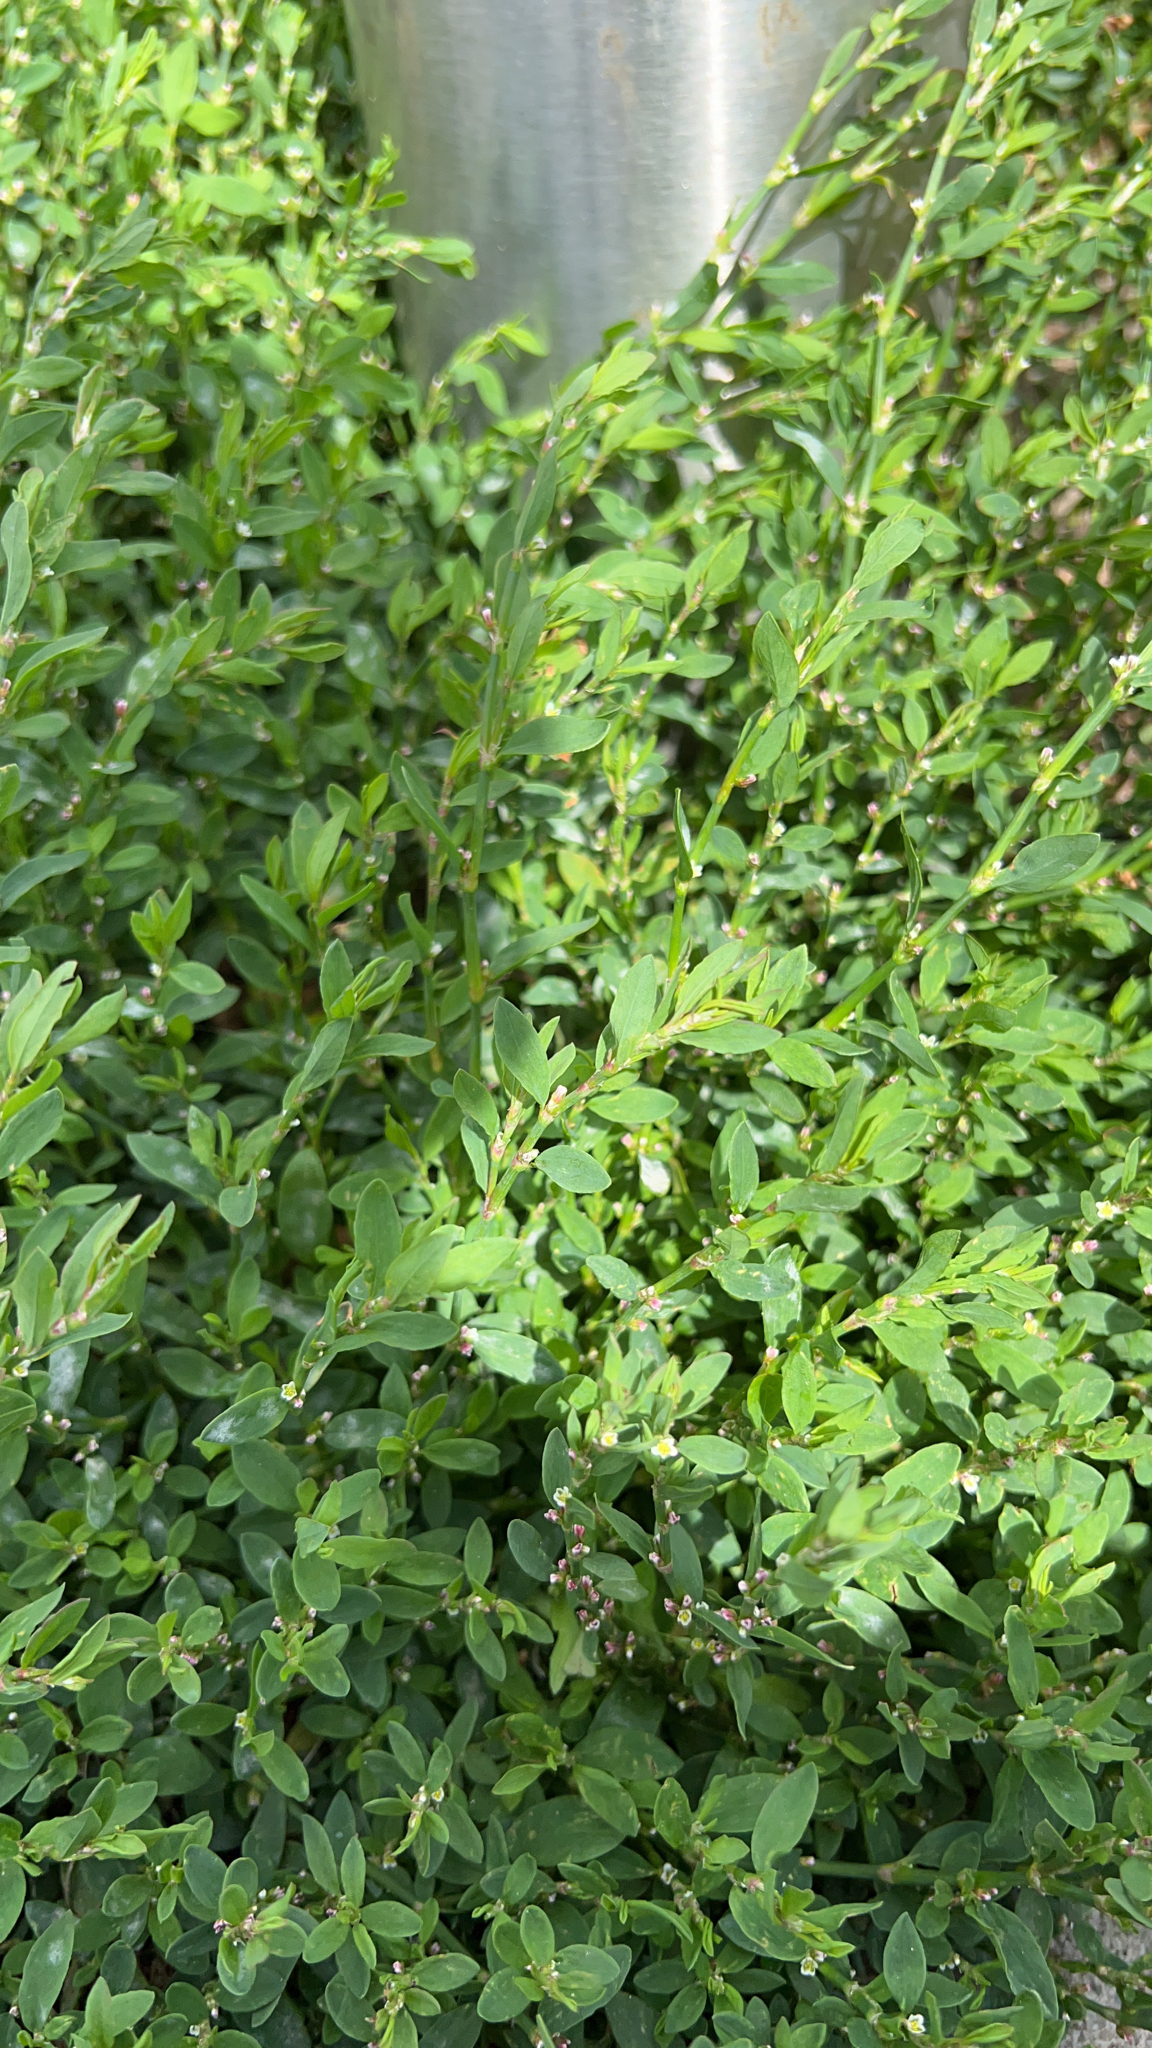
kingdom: Plantae
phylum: Tracheophyta
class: Magnoliopsida
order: Caryophyllales
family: Polygonaceae
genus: Polygonum
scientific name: Polygonum aviculare
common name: Prostrate knotweed
